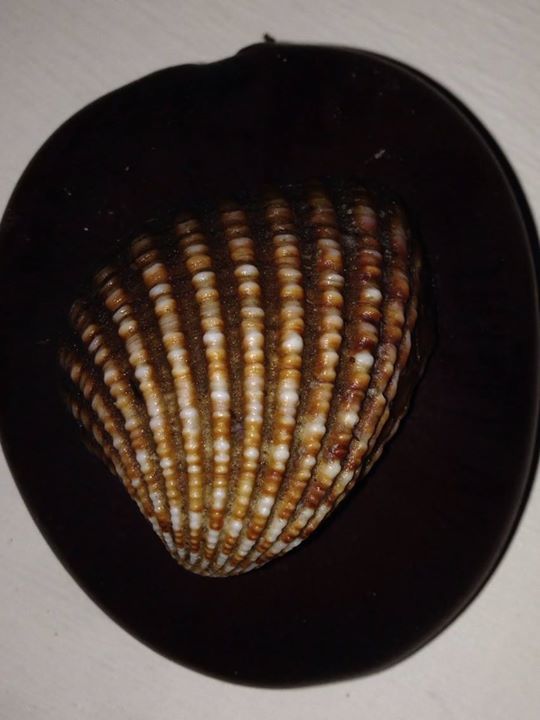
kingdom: Animalia
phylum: Mollusca
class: Bivalvia
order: Carditida
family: Carditidae
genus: Cardites
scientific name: Cardites antiquatus
